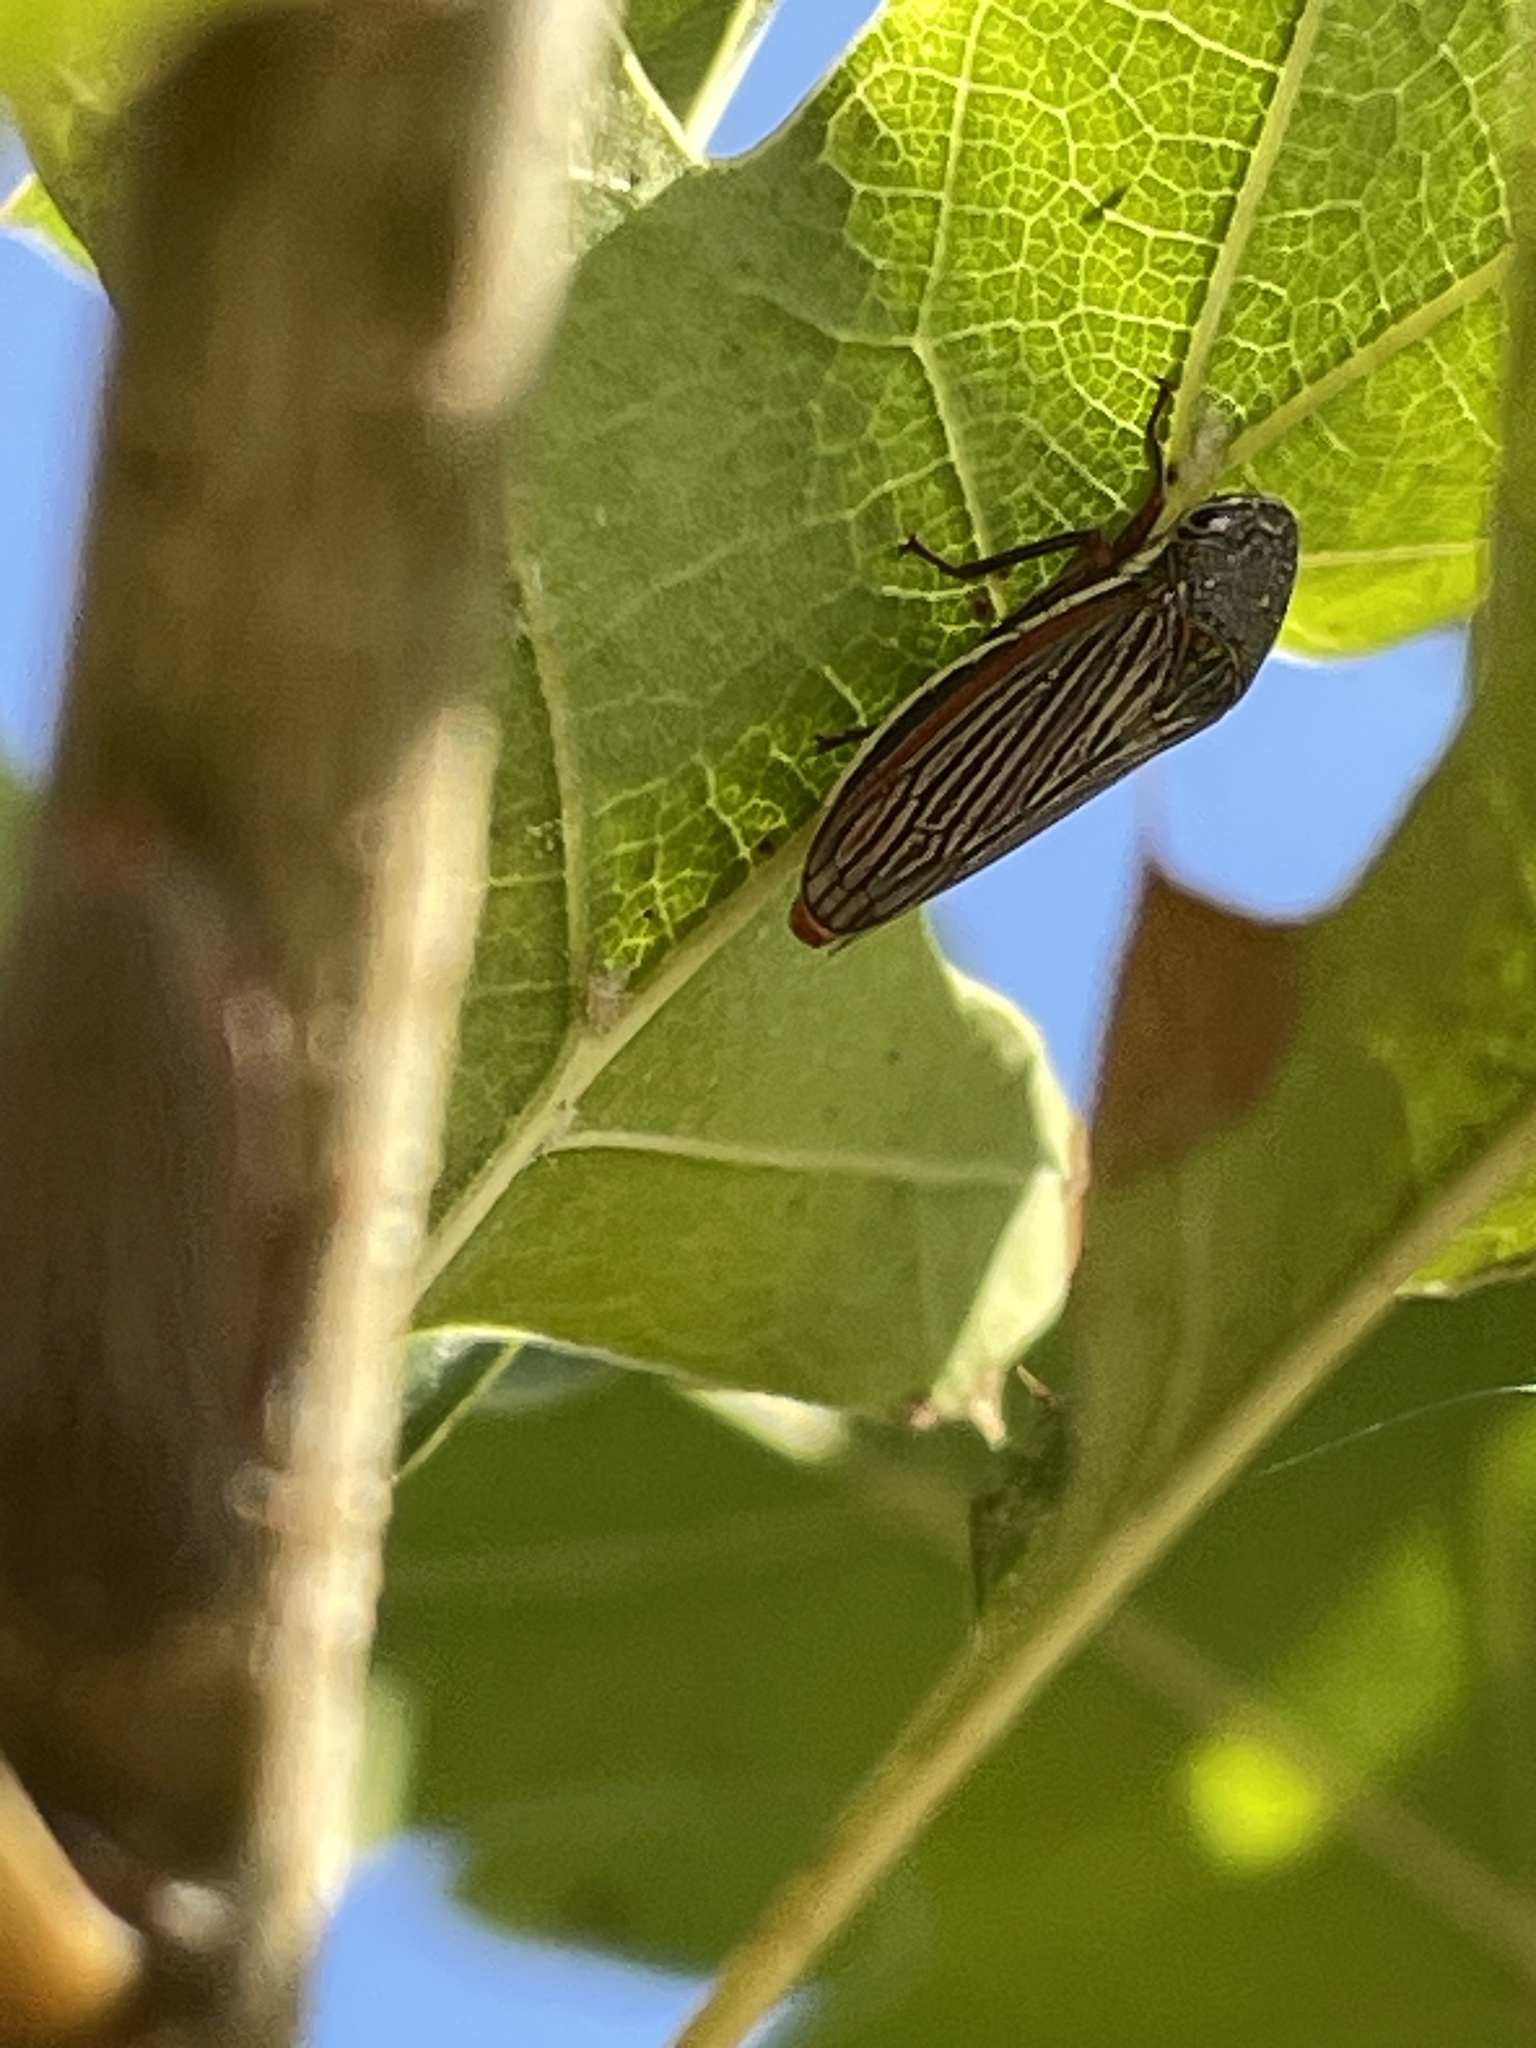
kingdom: Animalia
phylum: Arthropoda
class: Insecta
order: Hemiptera
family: Cicadellidae
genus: Cuerna
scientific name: Cuerna costalis
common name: Lateral-lined sharpshooter
